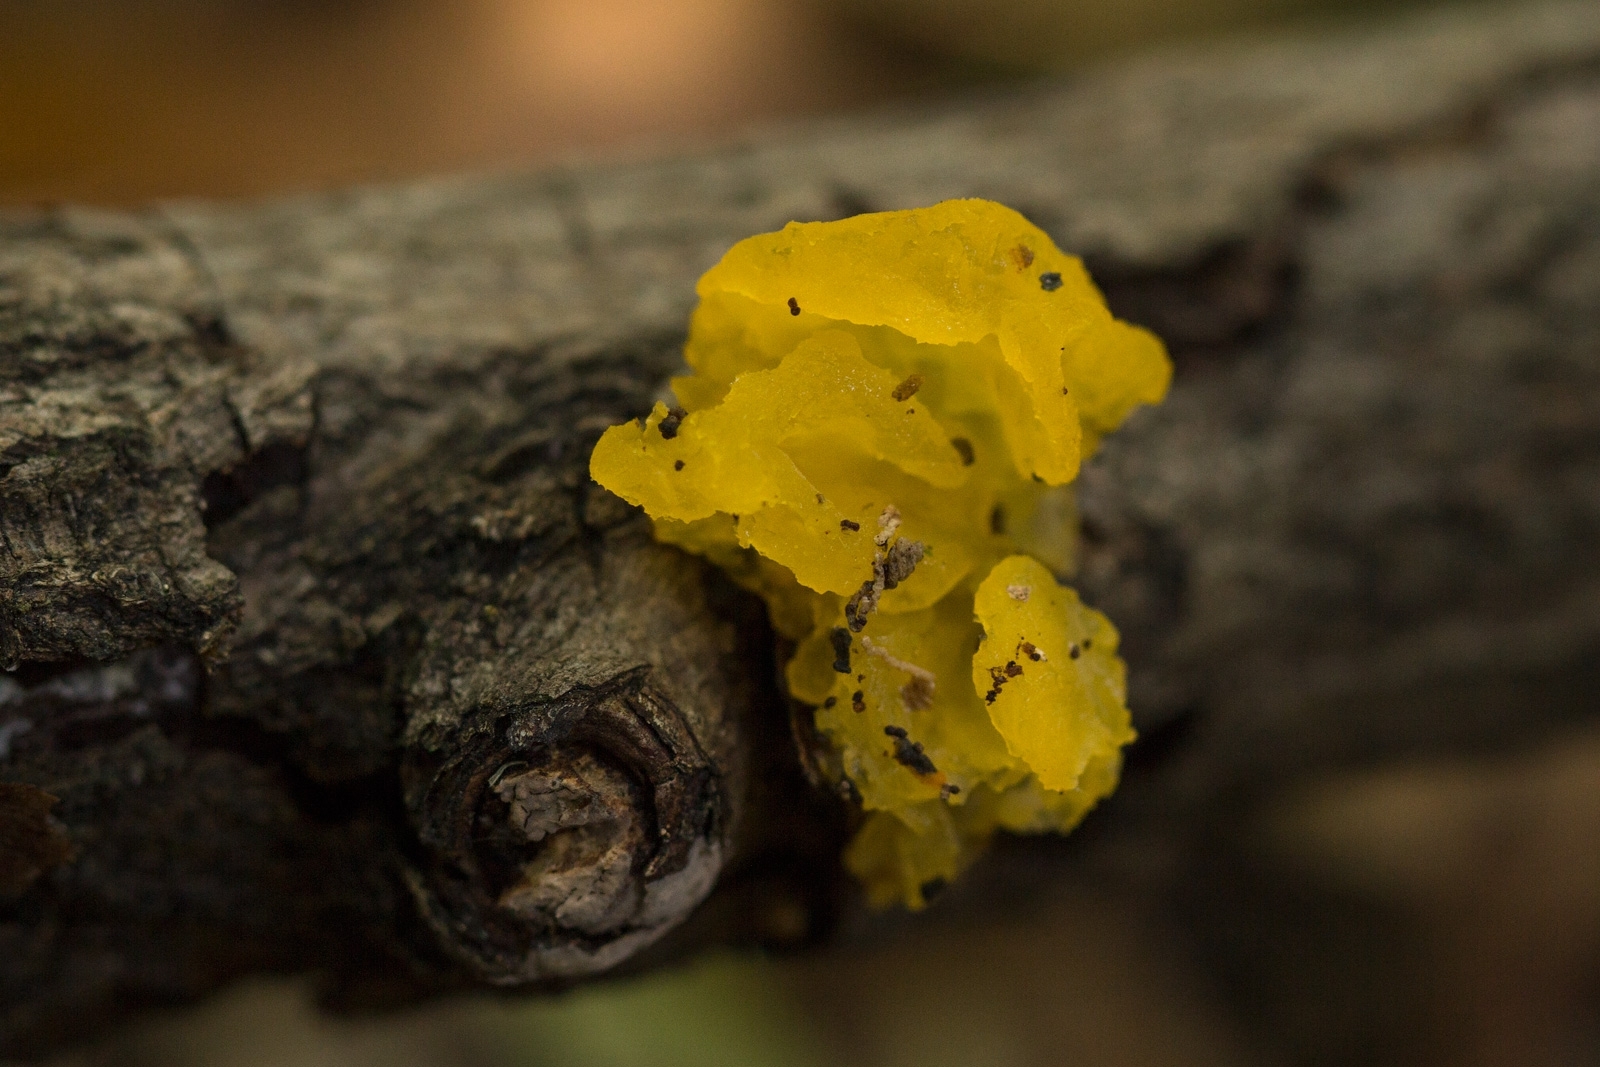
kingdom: Fungi
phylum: Basidiomycota
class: Tremellomycetes
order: Tremellales
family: Tremellaceae
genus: Tremella
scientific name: Tremella mesenterica
